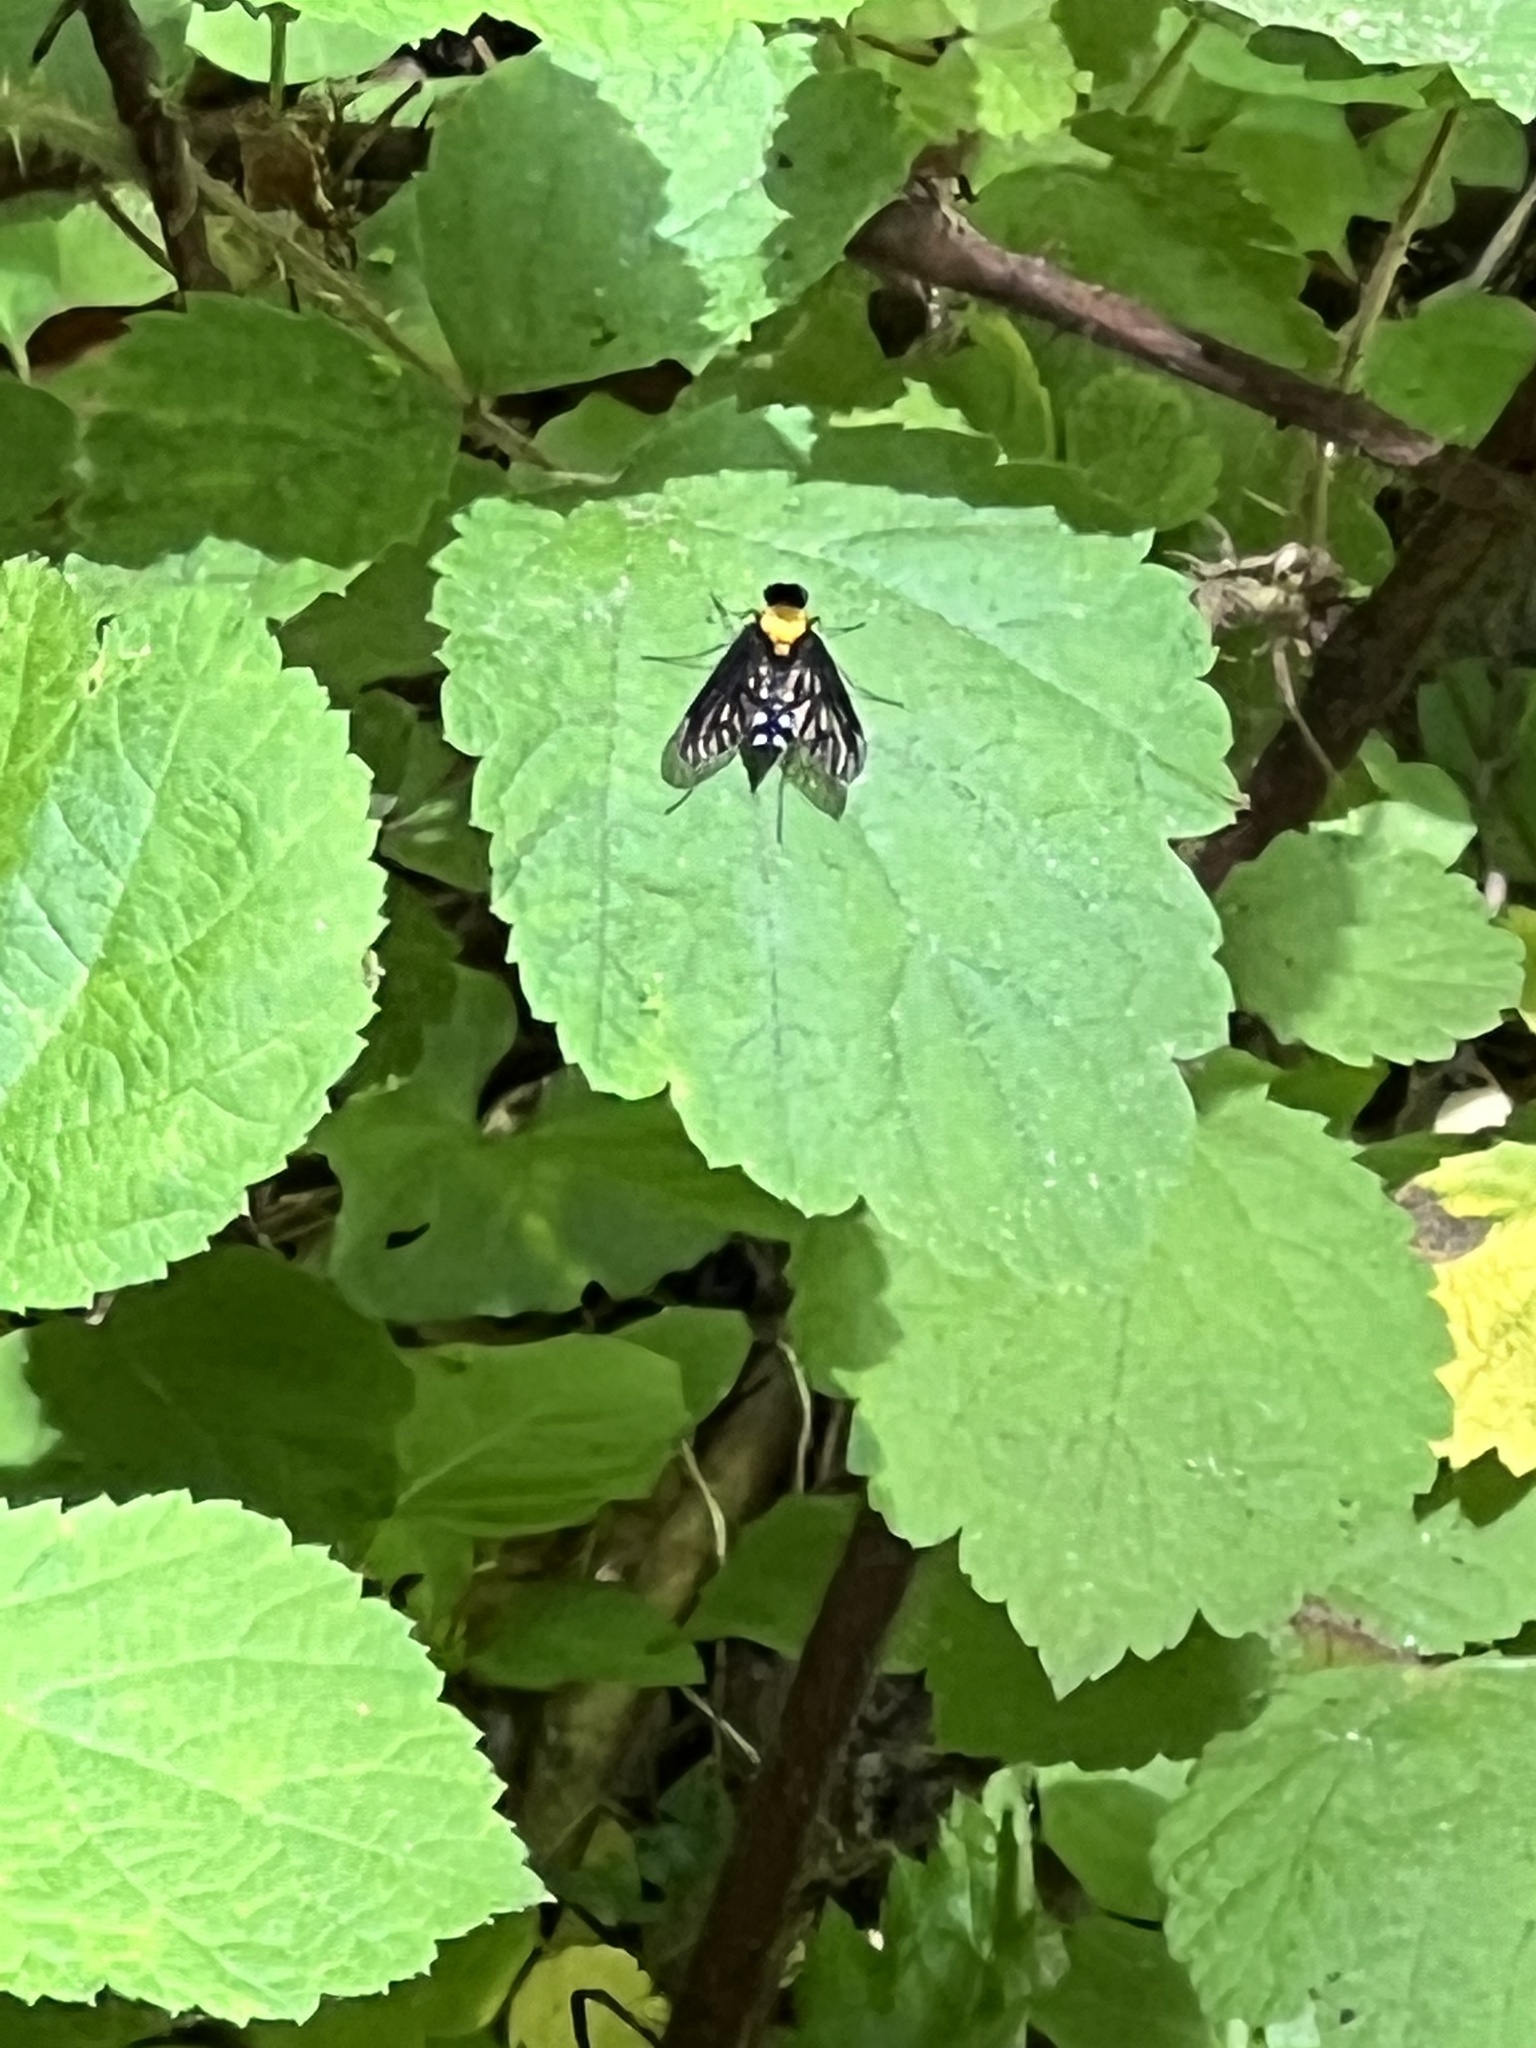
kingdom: Animalia
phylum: Arthropoda
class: Insecta
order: Diptera
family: Rhagionidae
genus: Chrysopilus
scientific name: Chrysopilus thoracicus
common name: Golden-backed snipe fly
